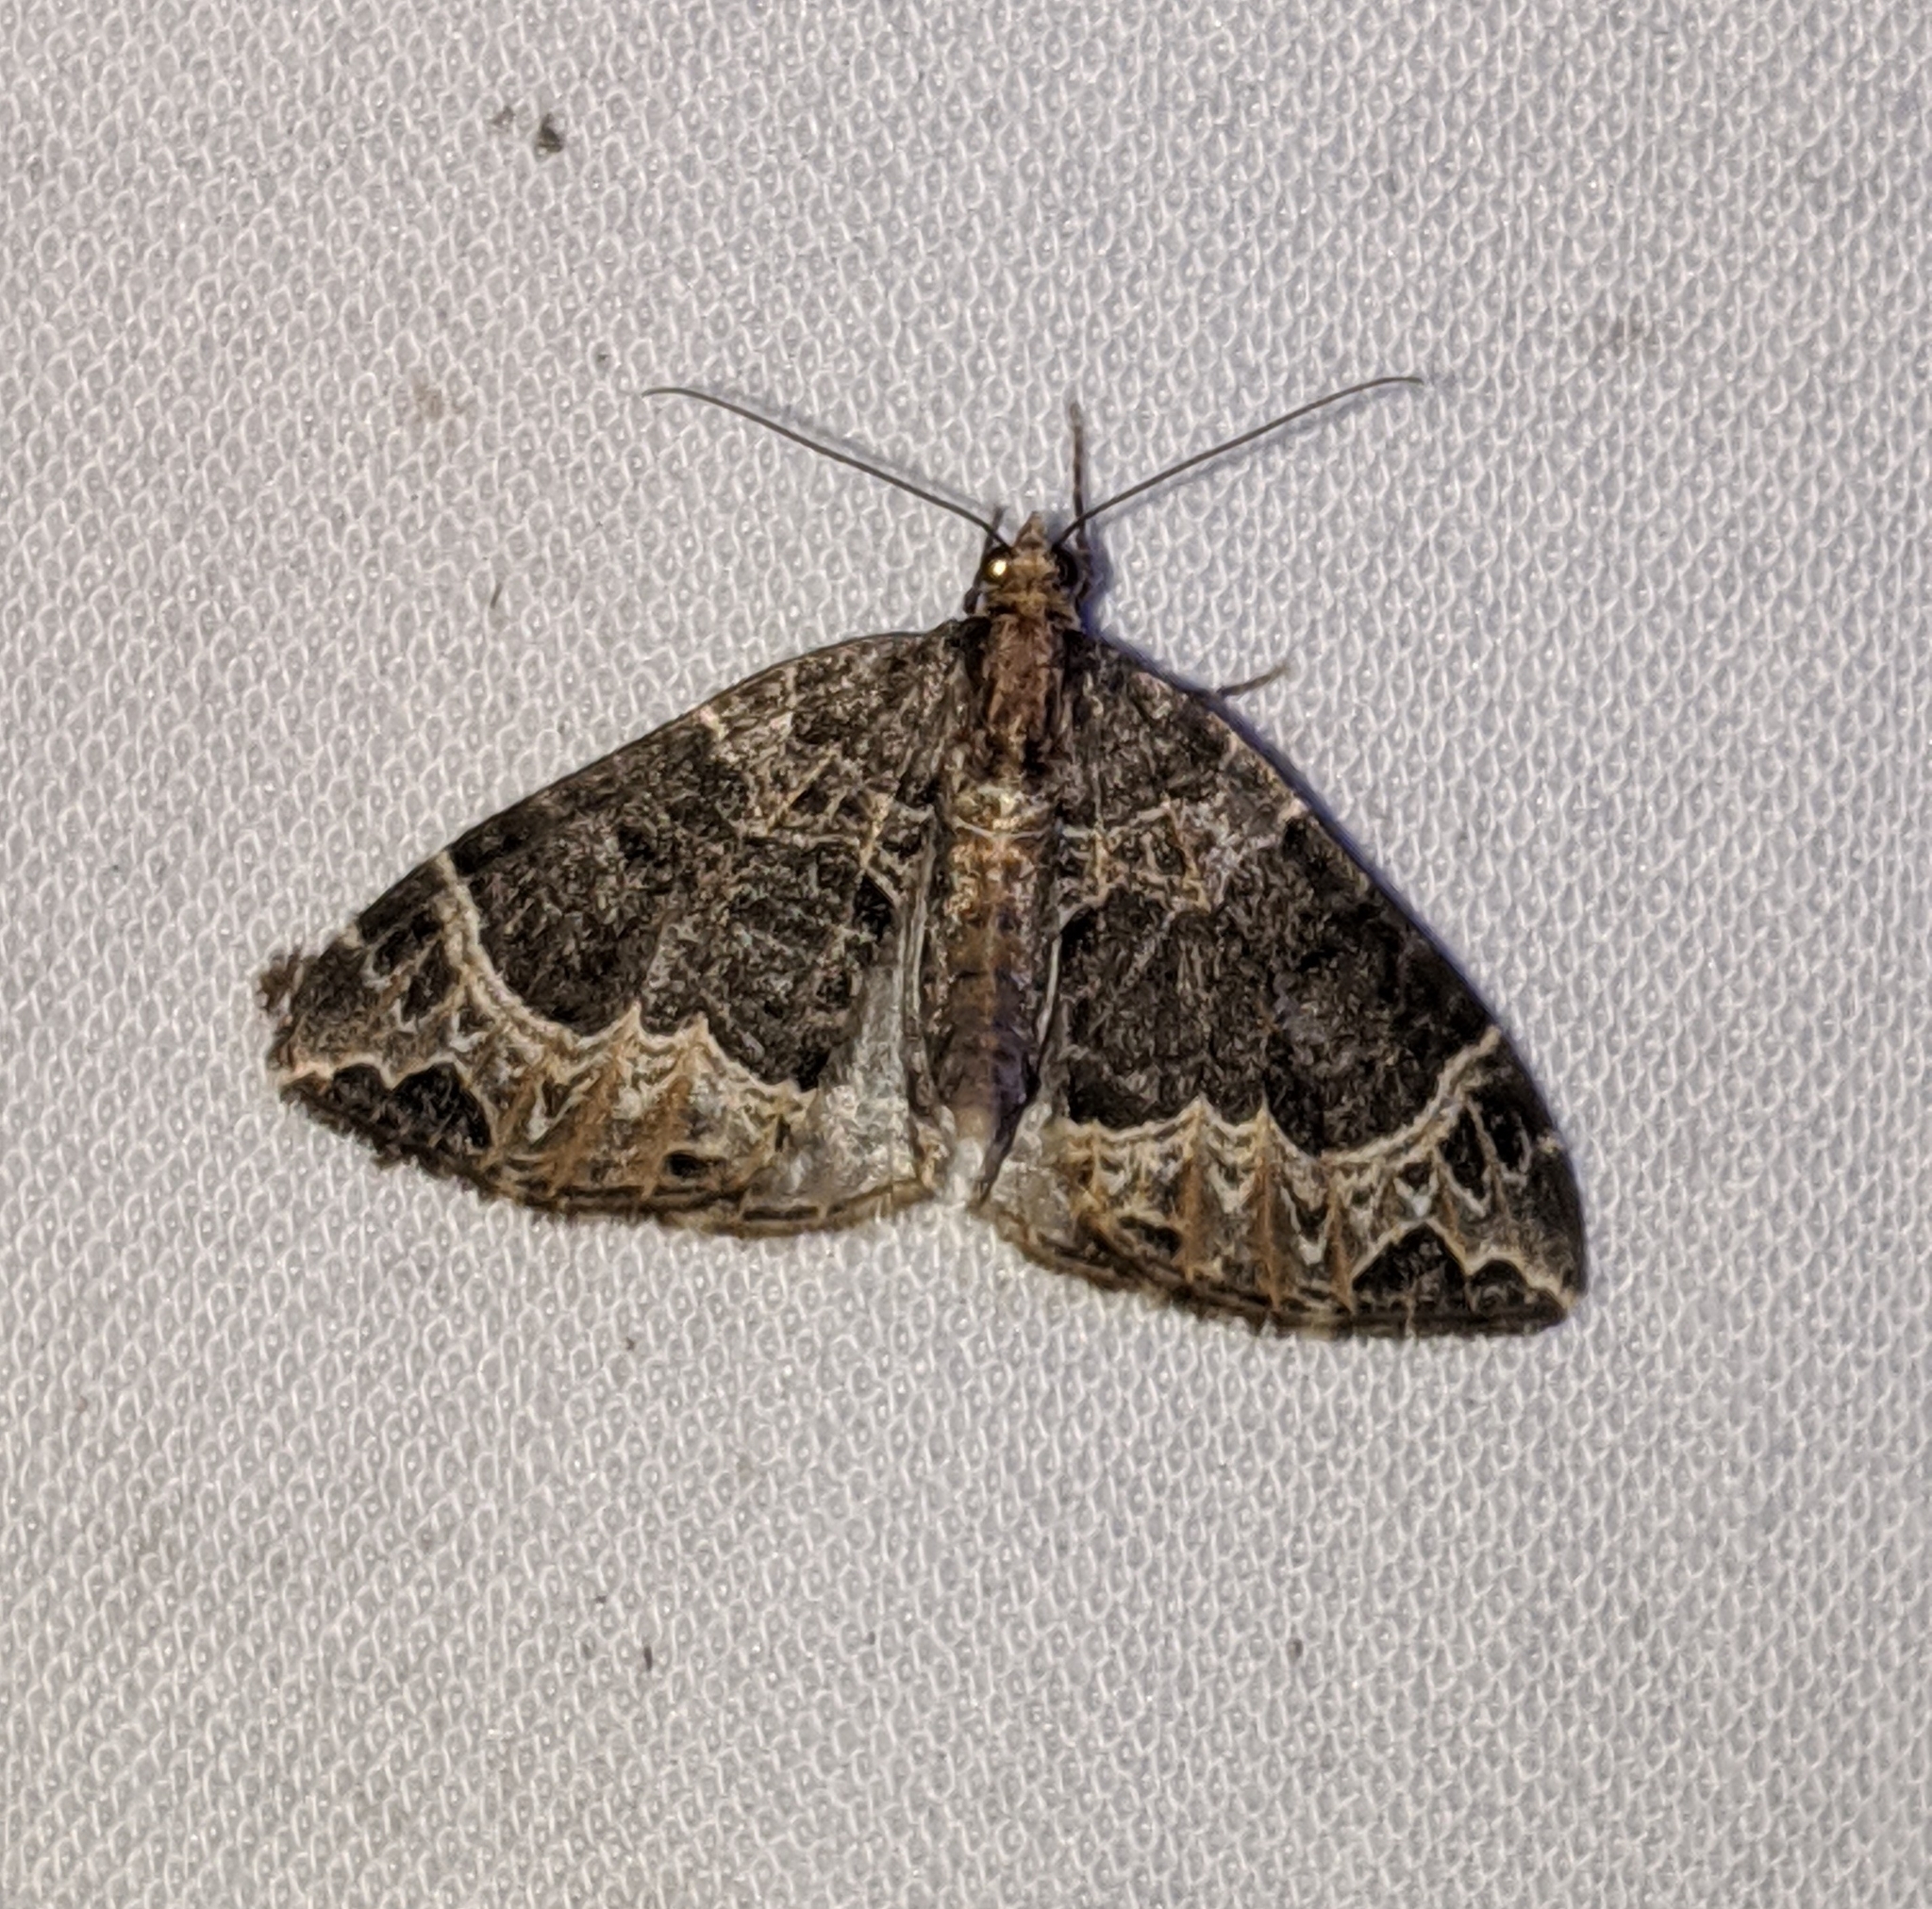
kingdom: Animalia
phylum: Arthropoda
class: Insecta
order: Lepidoptera
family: Geometridae
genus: Ecliptopera
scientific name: Ecliptopera silaceata
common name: Small phoenix
